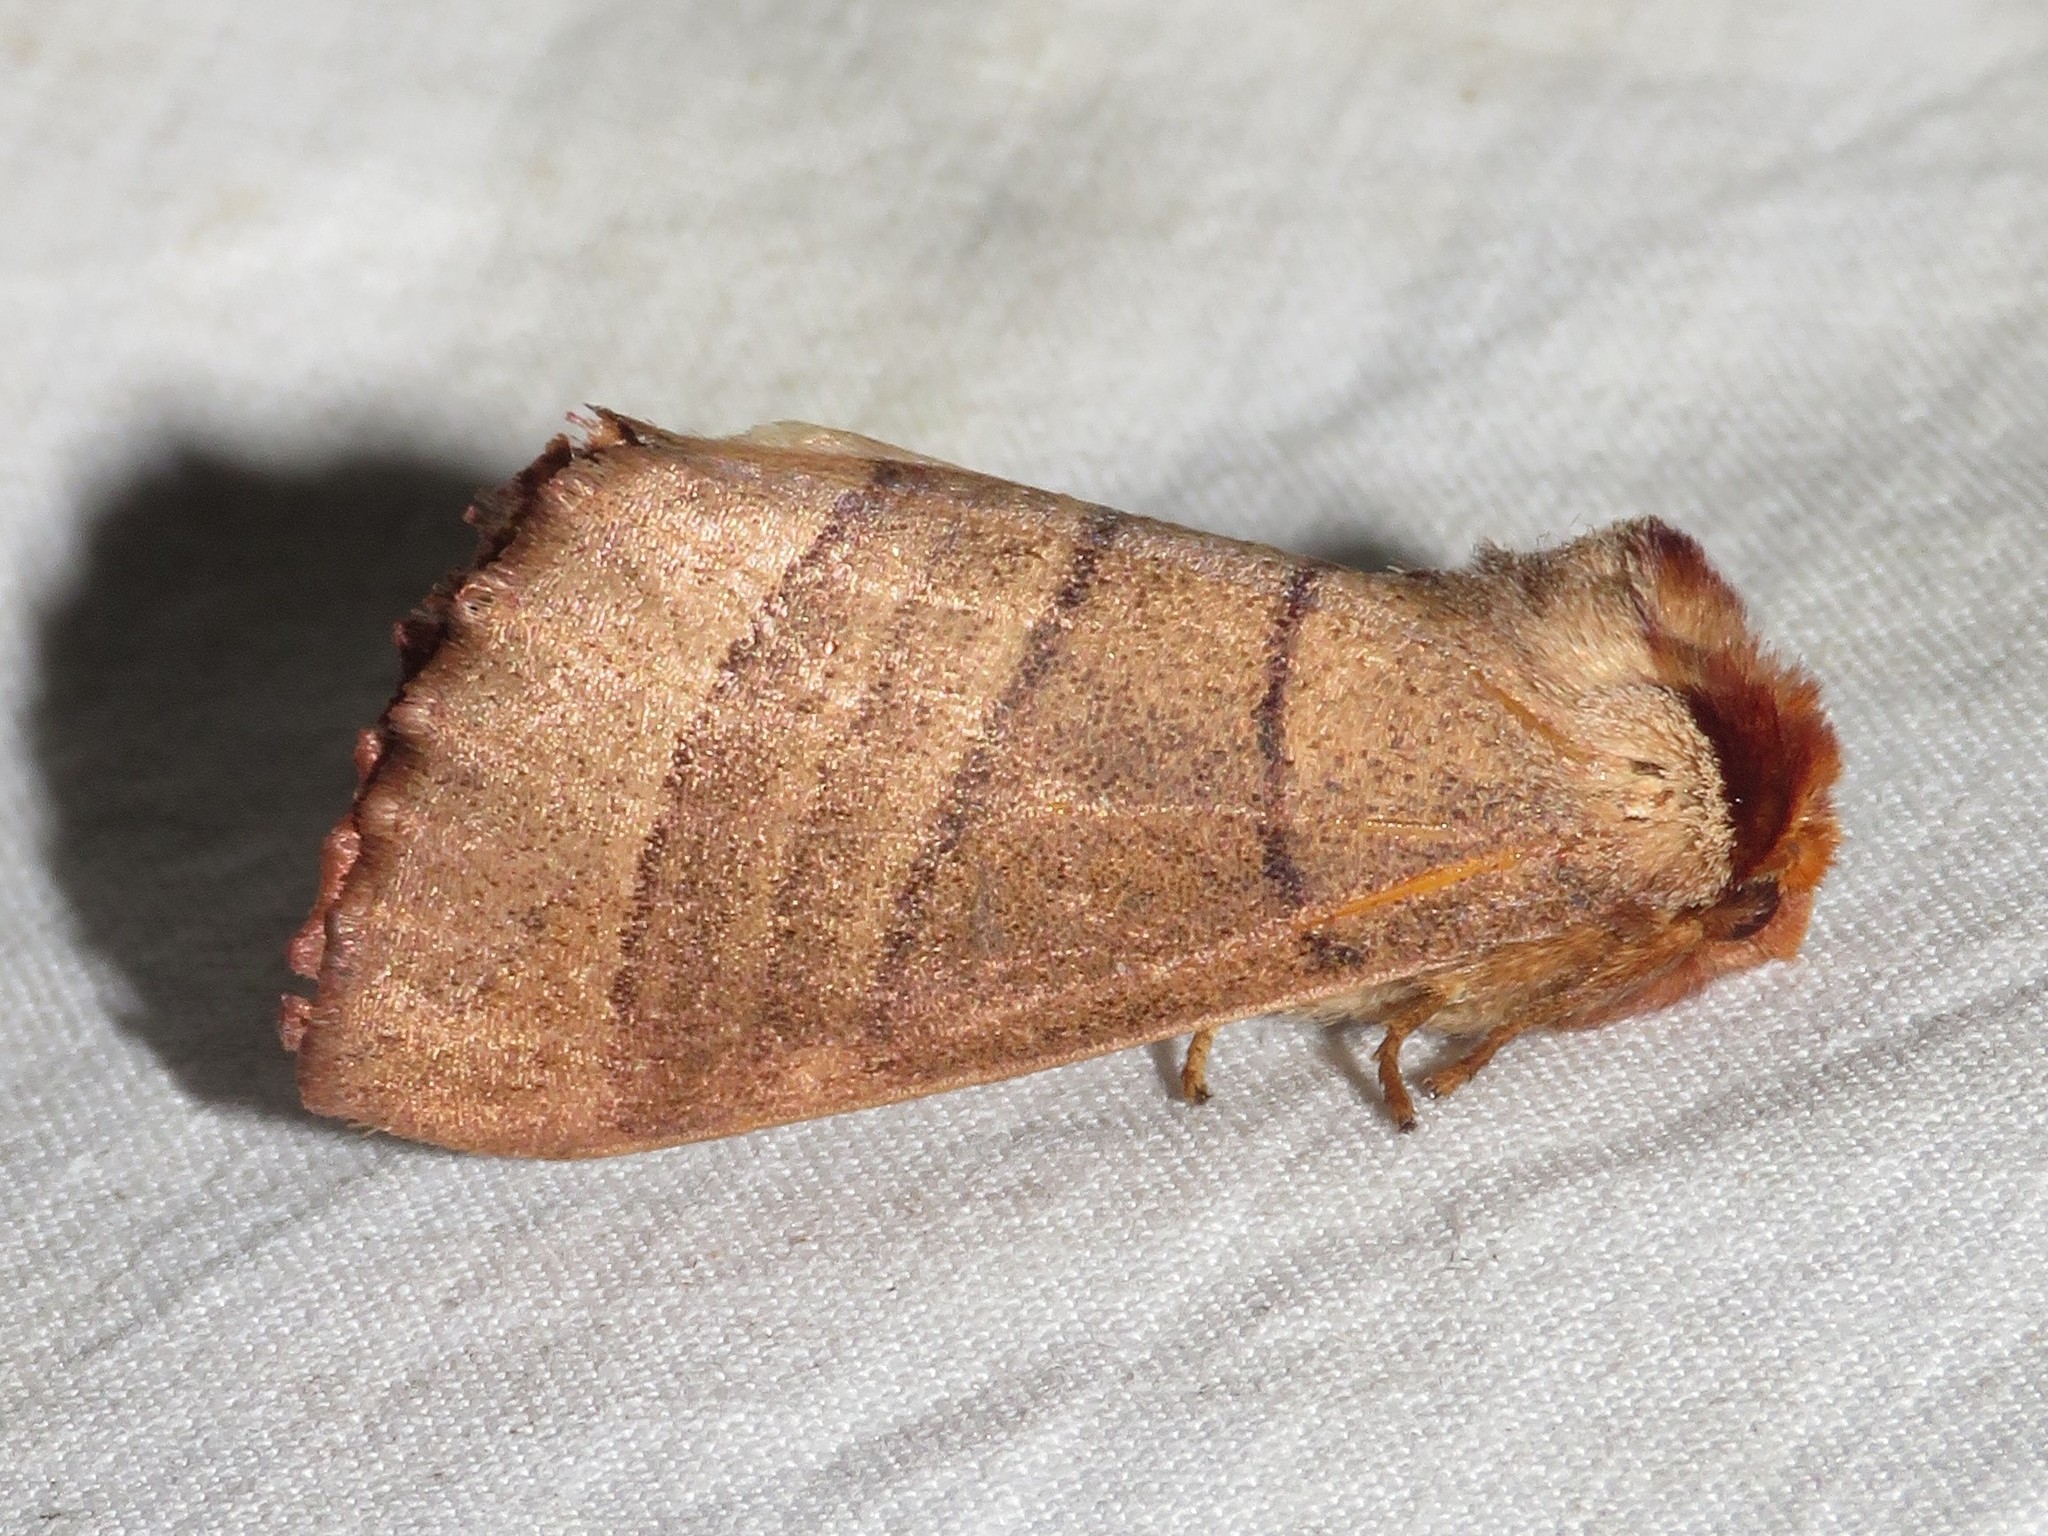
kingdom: Animalia
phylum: Arthropoda
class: Insecta
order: Lepidoptera
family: Notodontidae
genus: Datana
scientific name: Datana ministra
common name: Yellow-necked caterpillar moth
